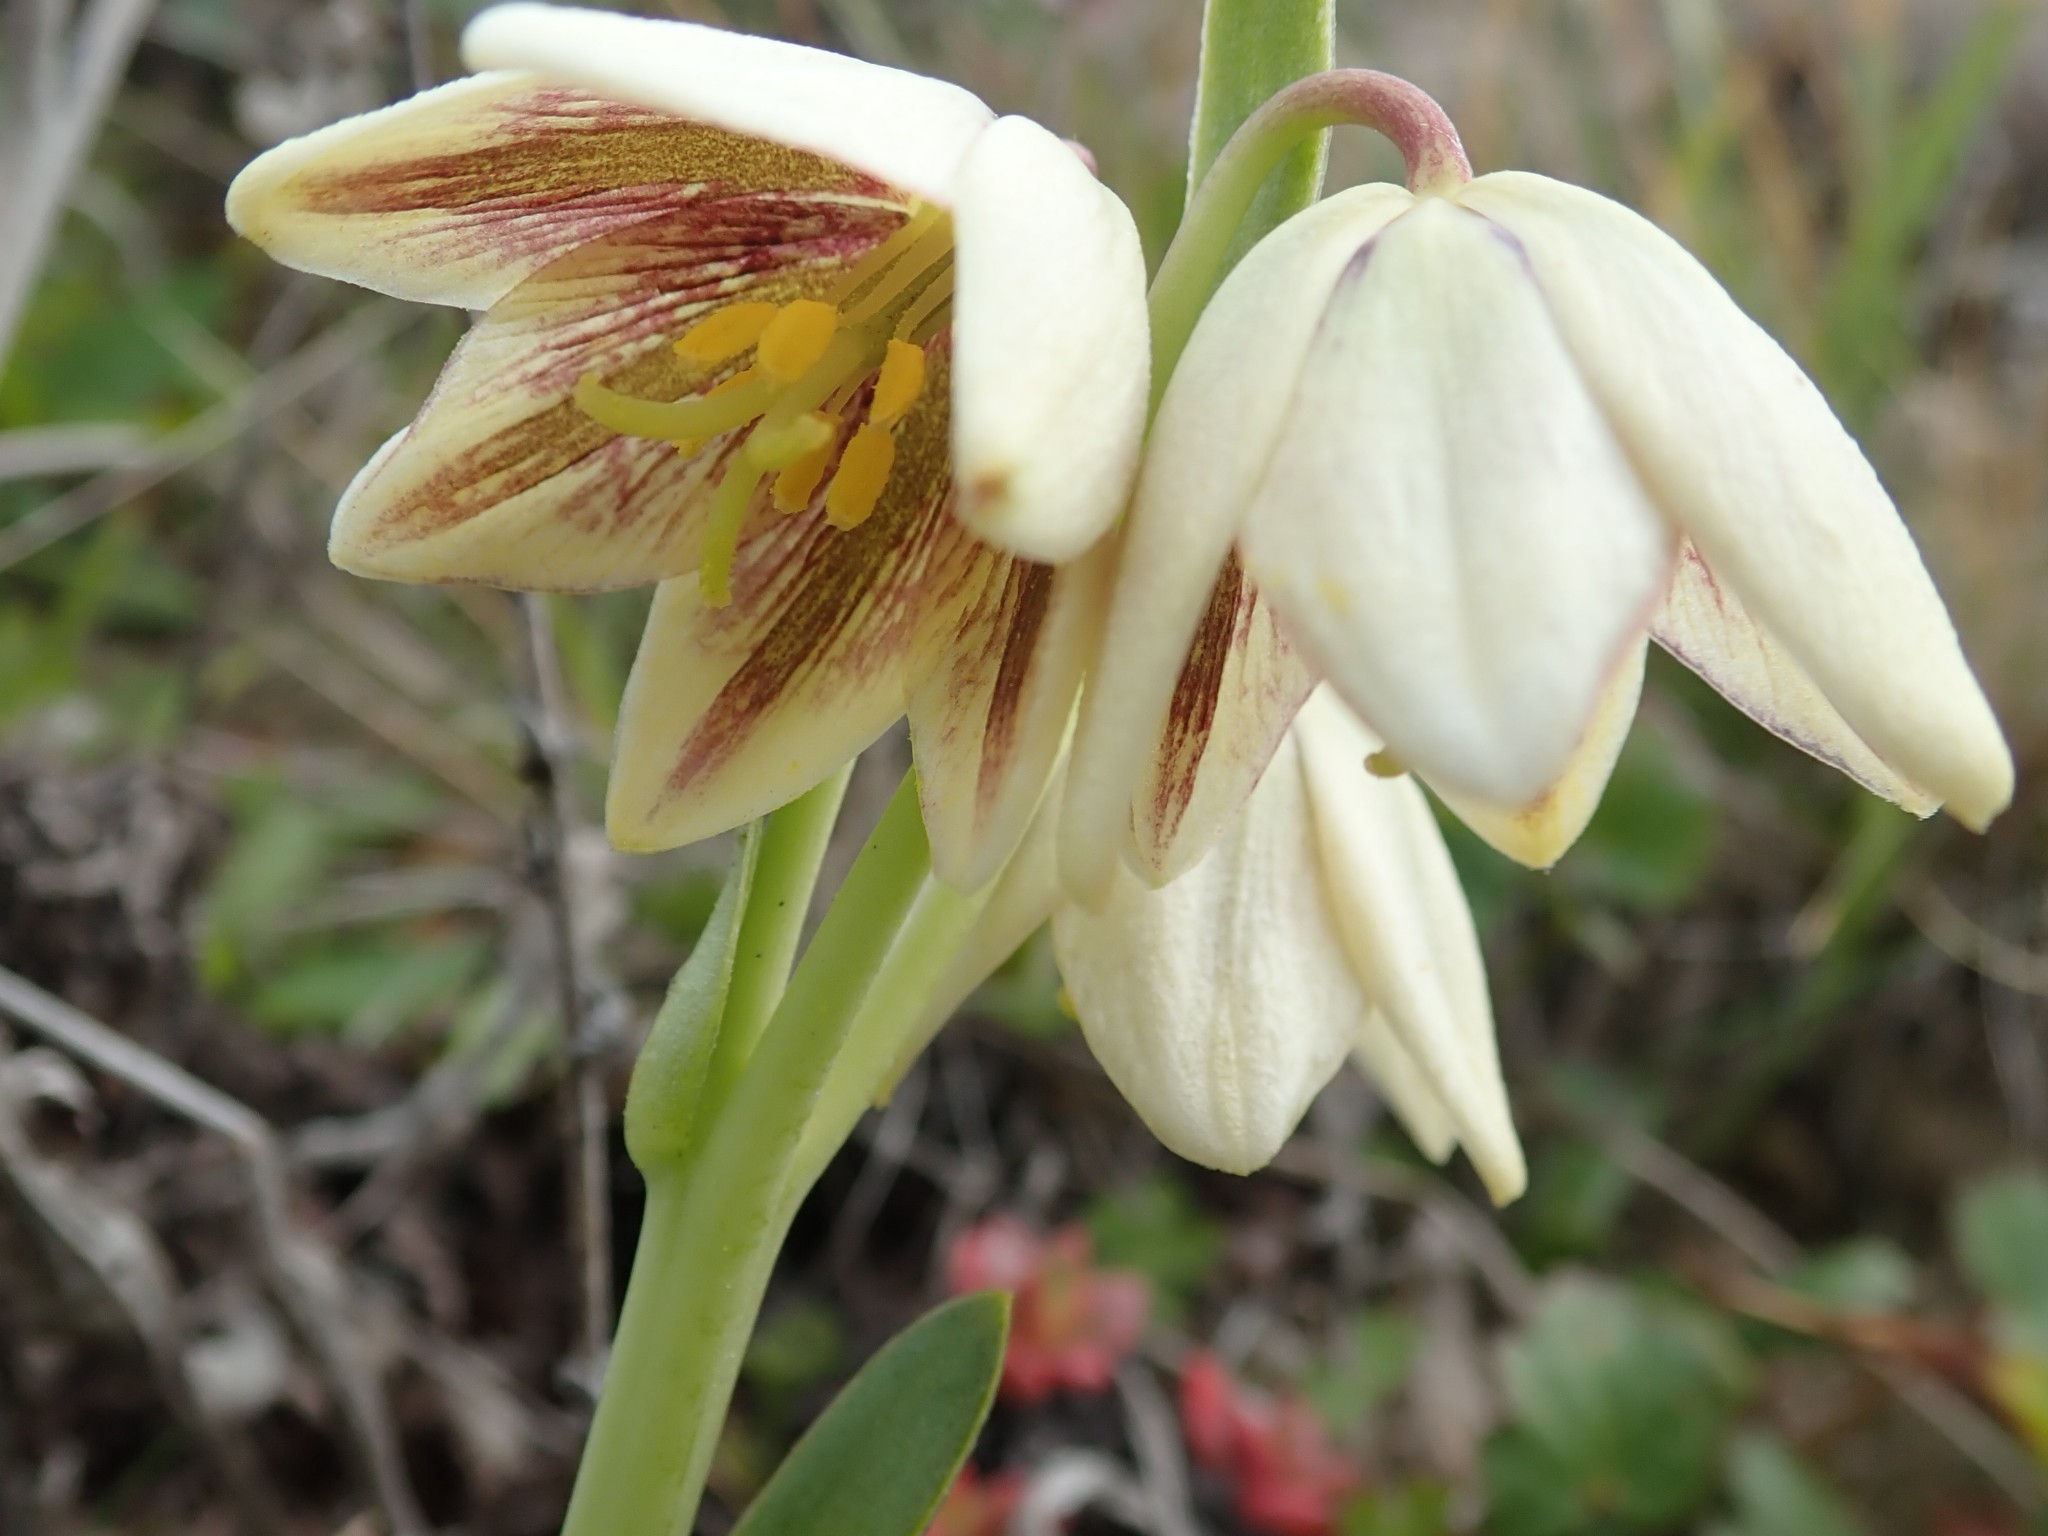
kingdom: Plantae
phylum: Tracheophyta
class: Liliopsida
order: Liliales
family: Liliaceae
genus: Fritillaria
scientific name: Fritillaria liliacea
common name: Fragrant fritillary
